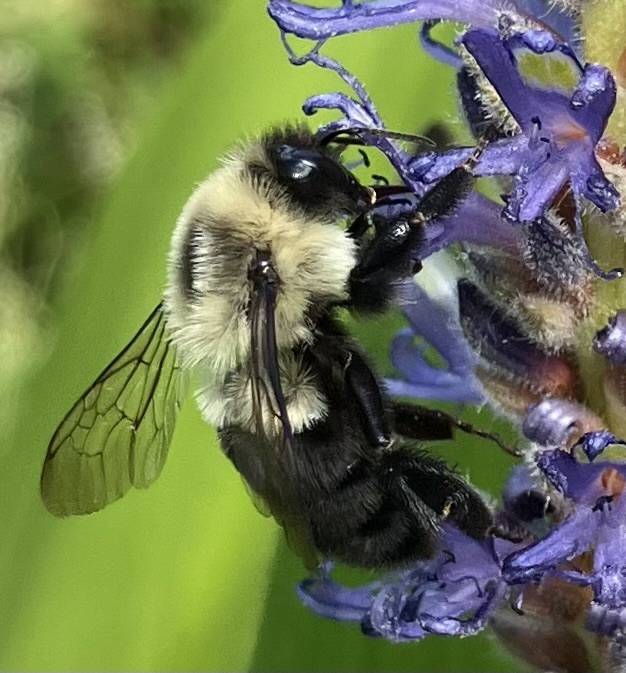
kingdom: Animalia
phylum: Arthropoda
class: Insecta
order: Hymenoptera
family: Apidae
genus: Bombus
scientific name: Bombus impatiens
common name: Common eastern bumble bee
